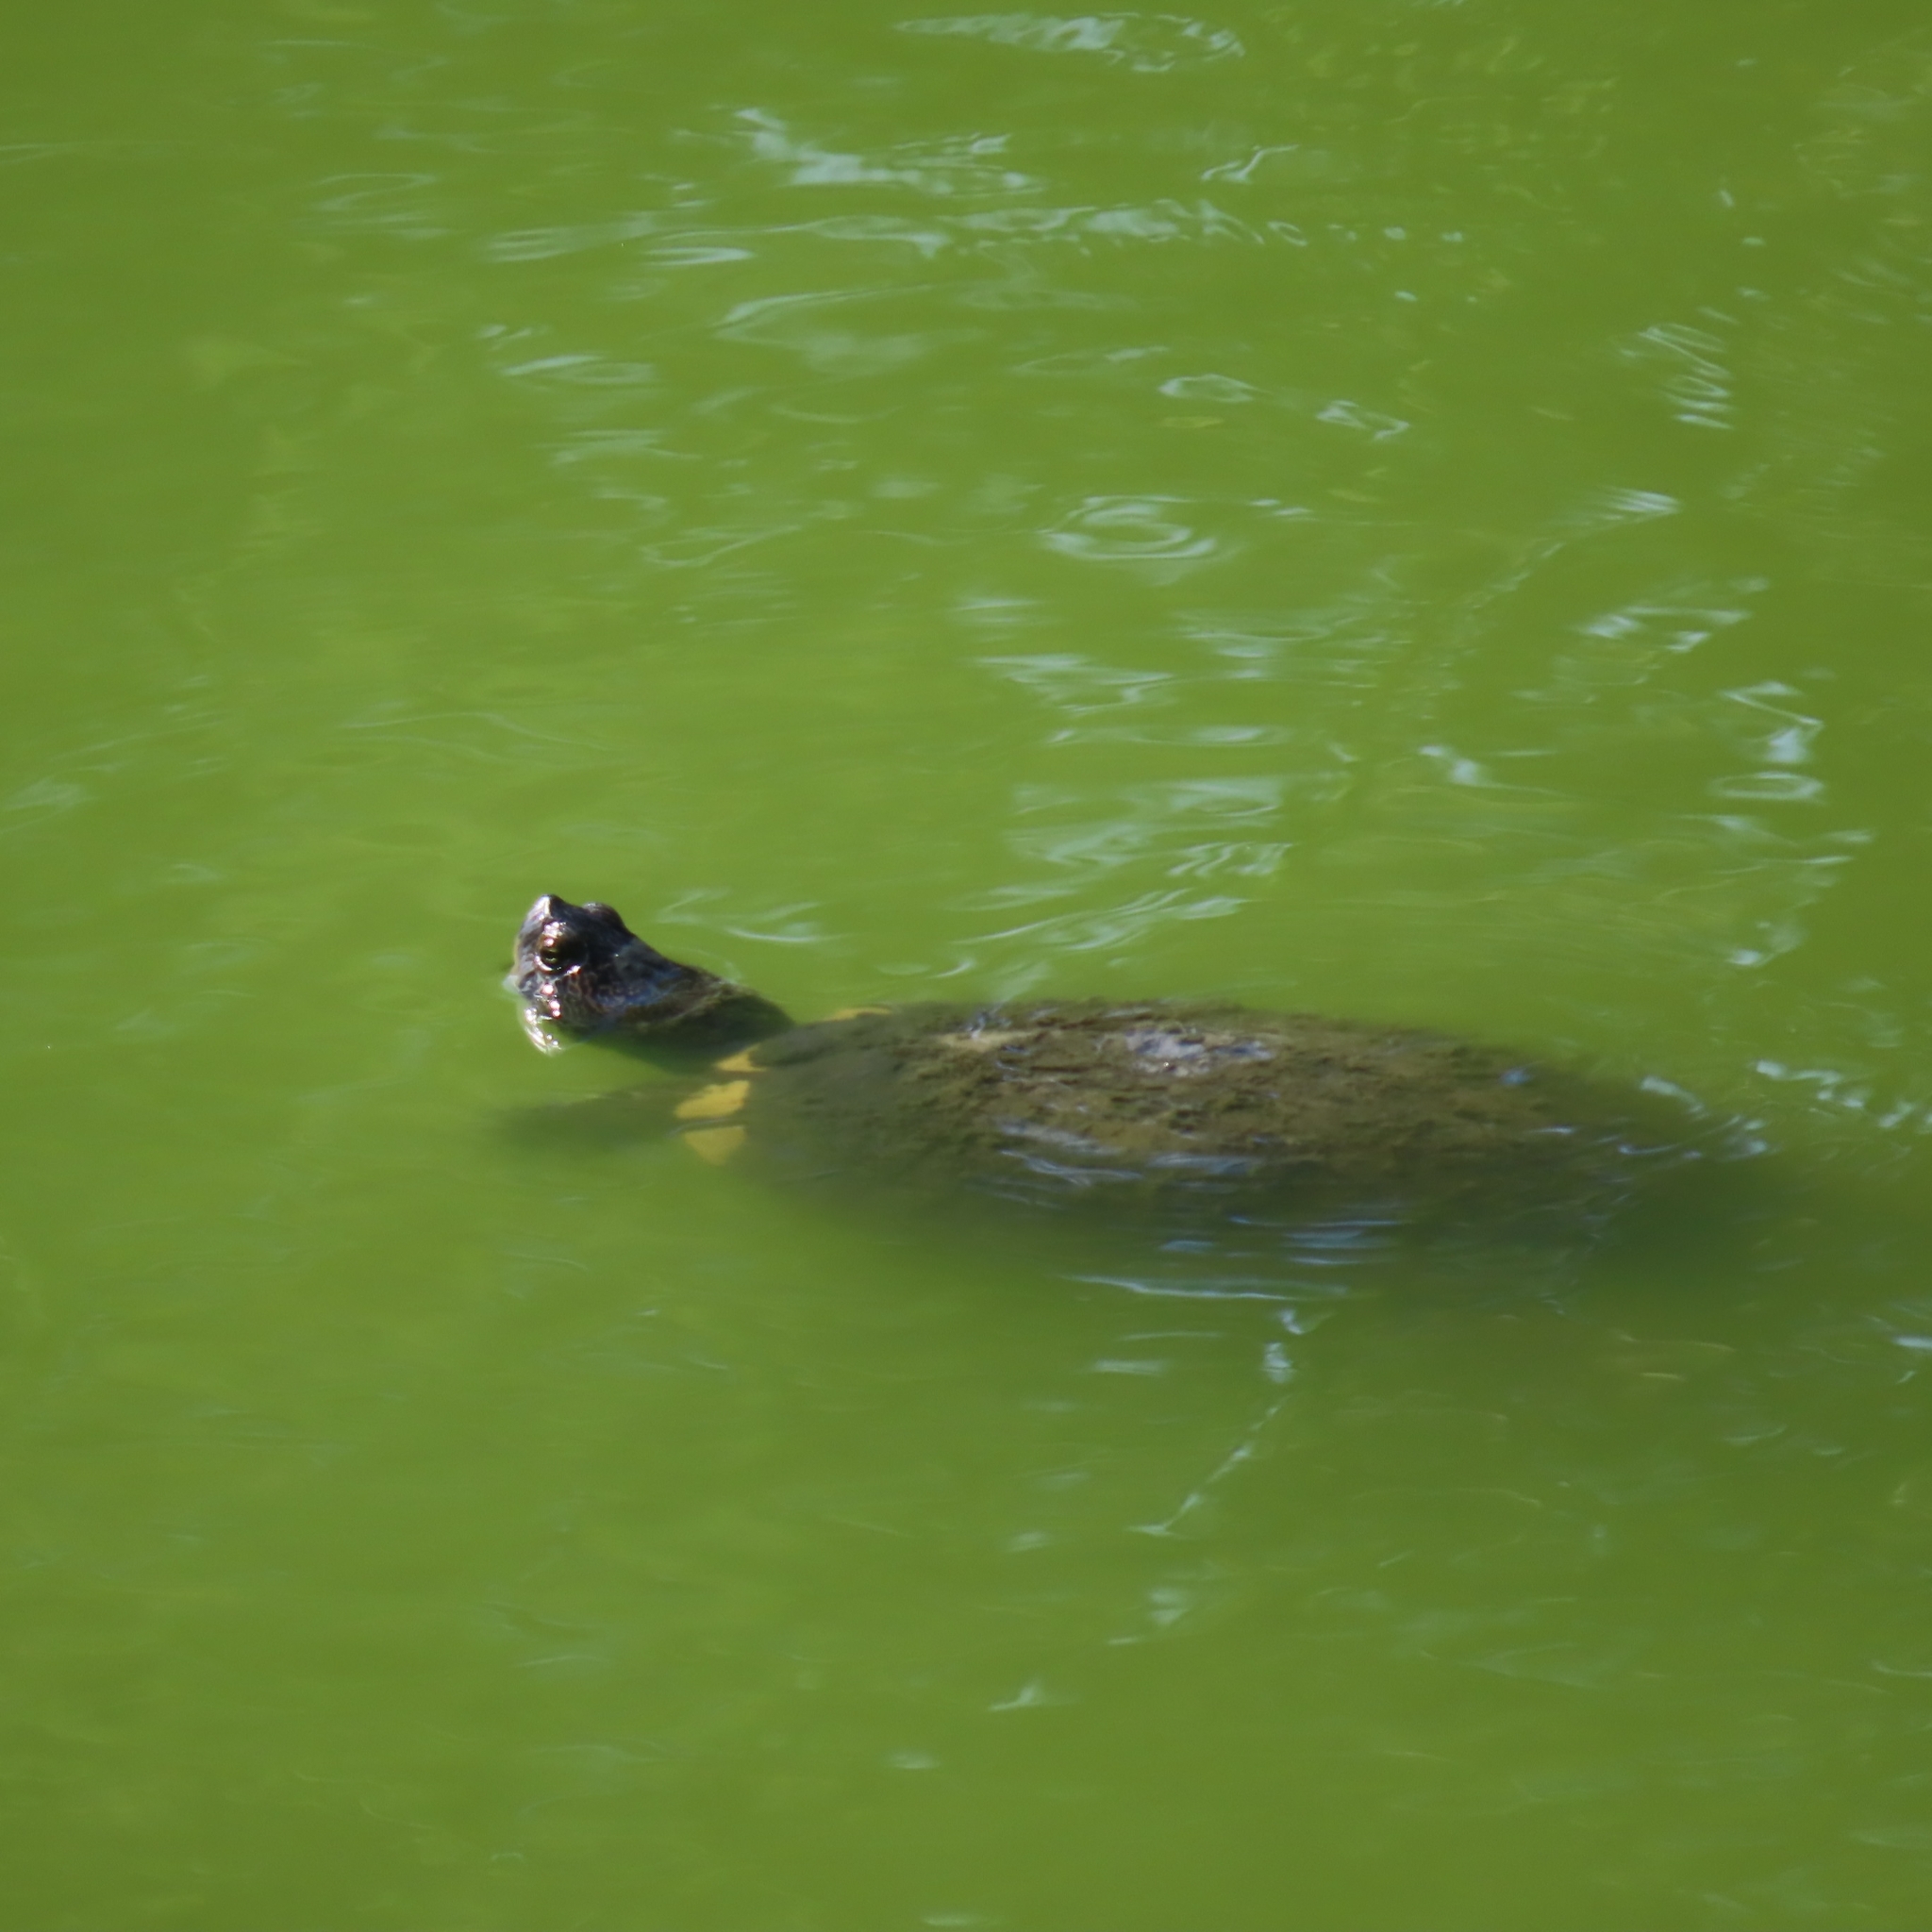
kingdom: Animalia
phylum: Chordata
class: Testudines
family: Emydidae
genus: Trachemys
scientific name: Trachemys scripta
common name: Slider
